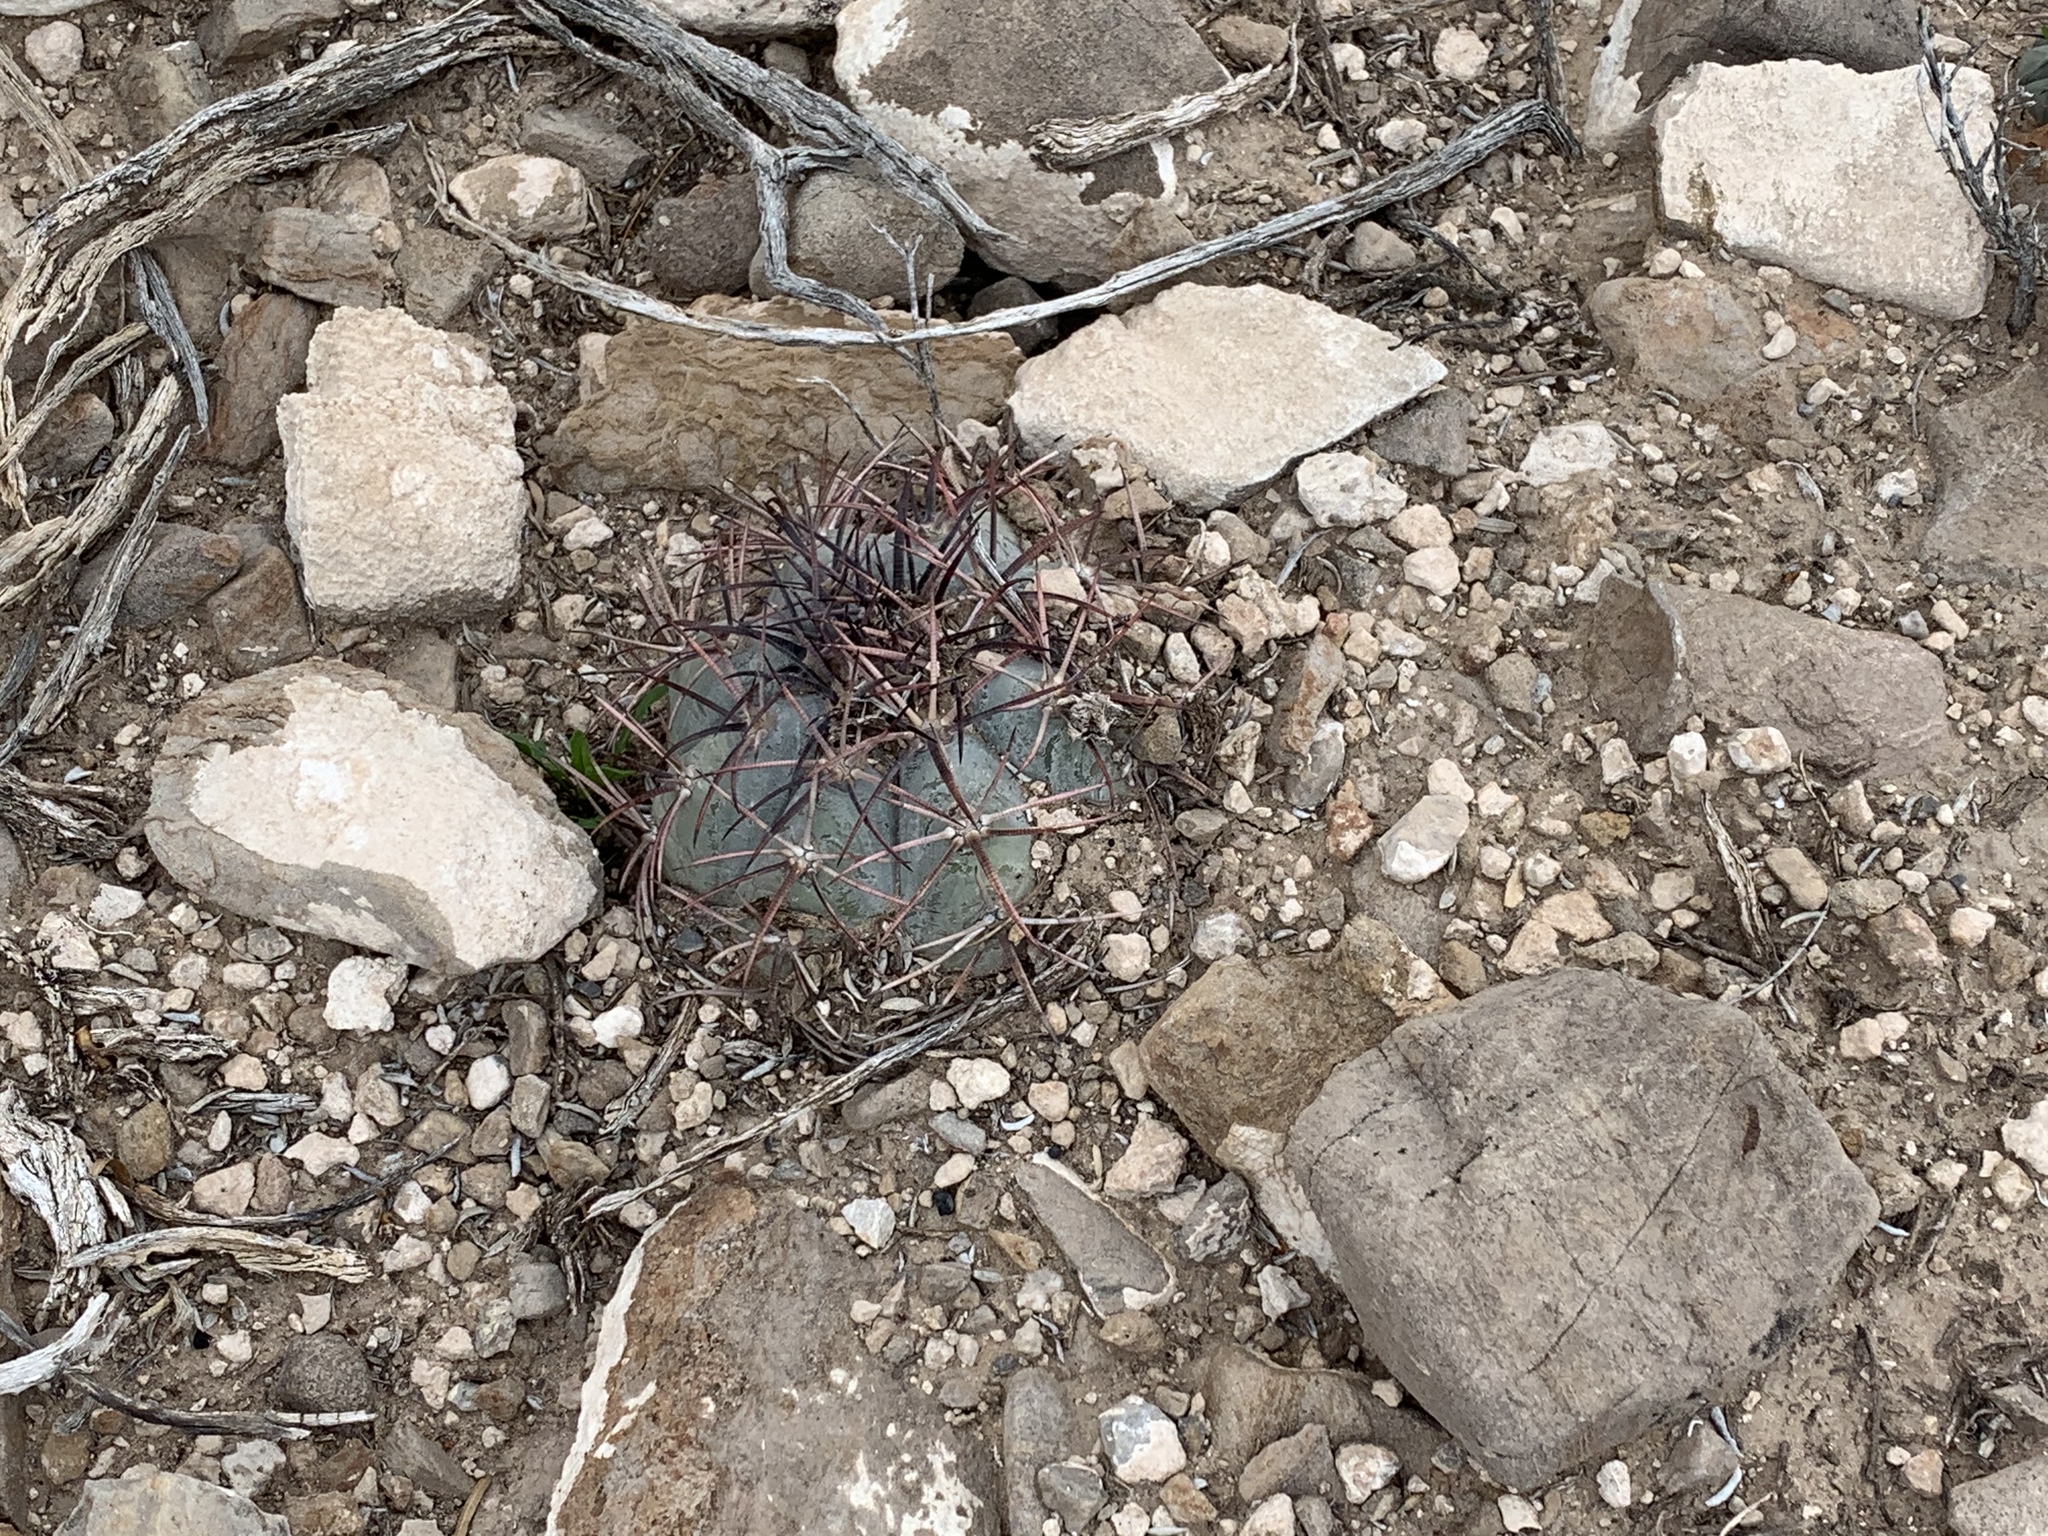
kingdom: Plantae
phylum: Tracheophyta
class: Magnoliopsida
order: Caryophyllales
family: Cactaceae
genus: Echinocactus
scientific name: Echinocactus horizonthalonius
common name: Devilshead
